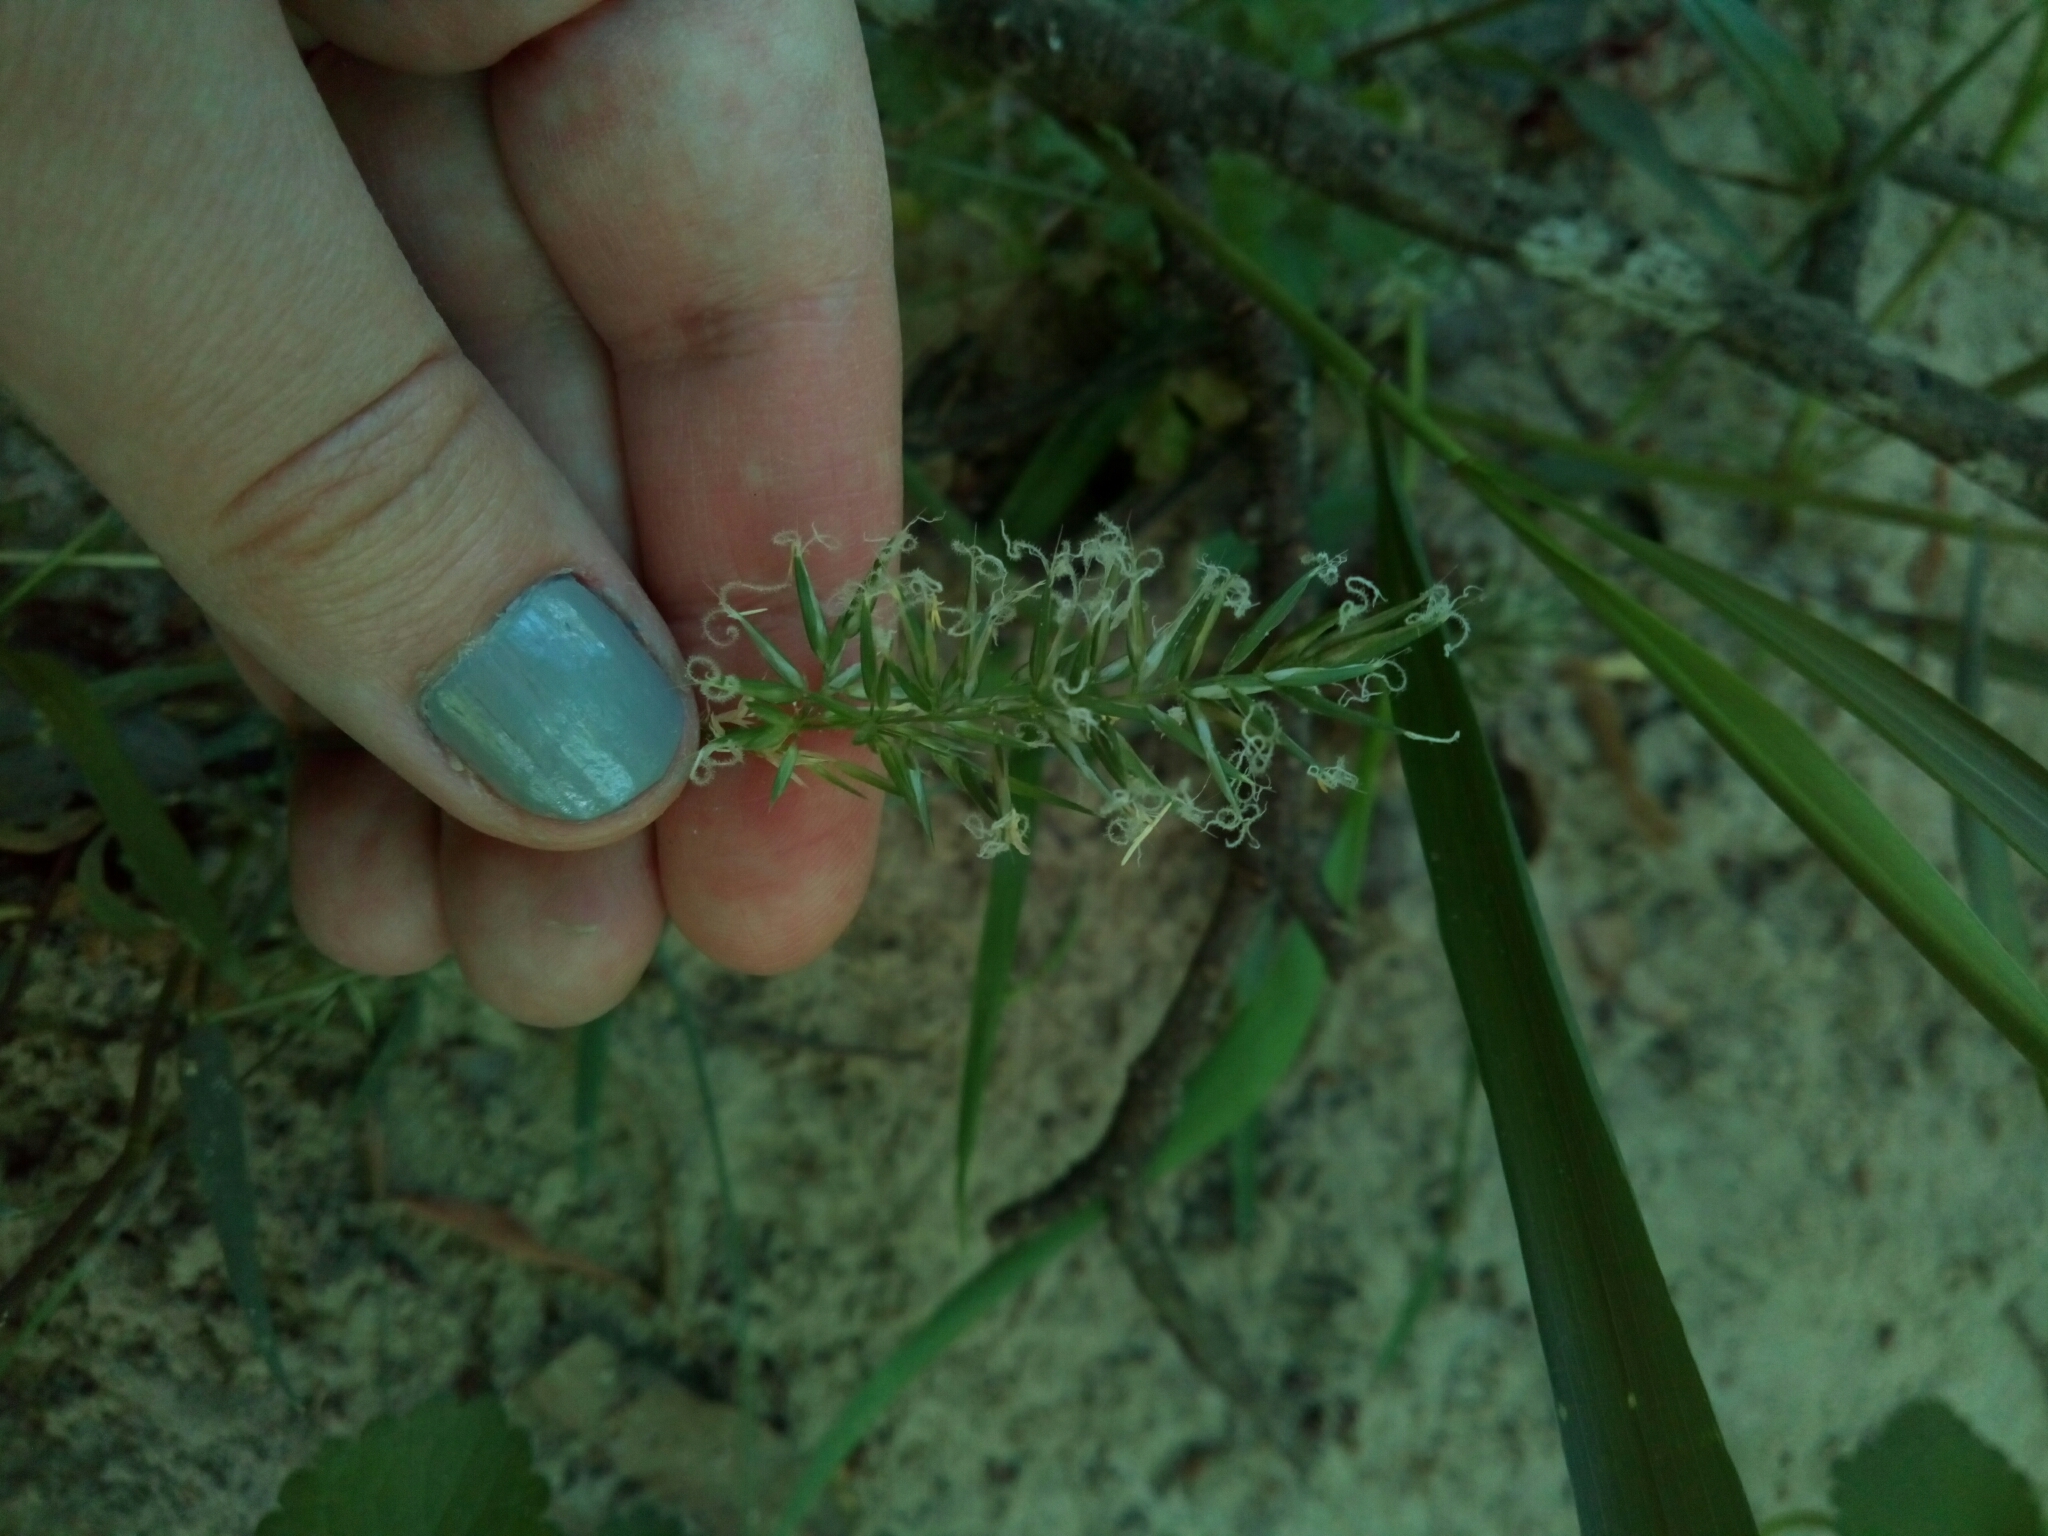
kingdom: Plantae
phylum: Tracheophyta
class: Liliopsida
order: Poales
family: Poaceae
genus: Anthoxanthum
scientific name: Anthoxanthum odoratum
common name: Sweet vernalgrass
